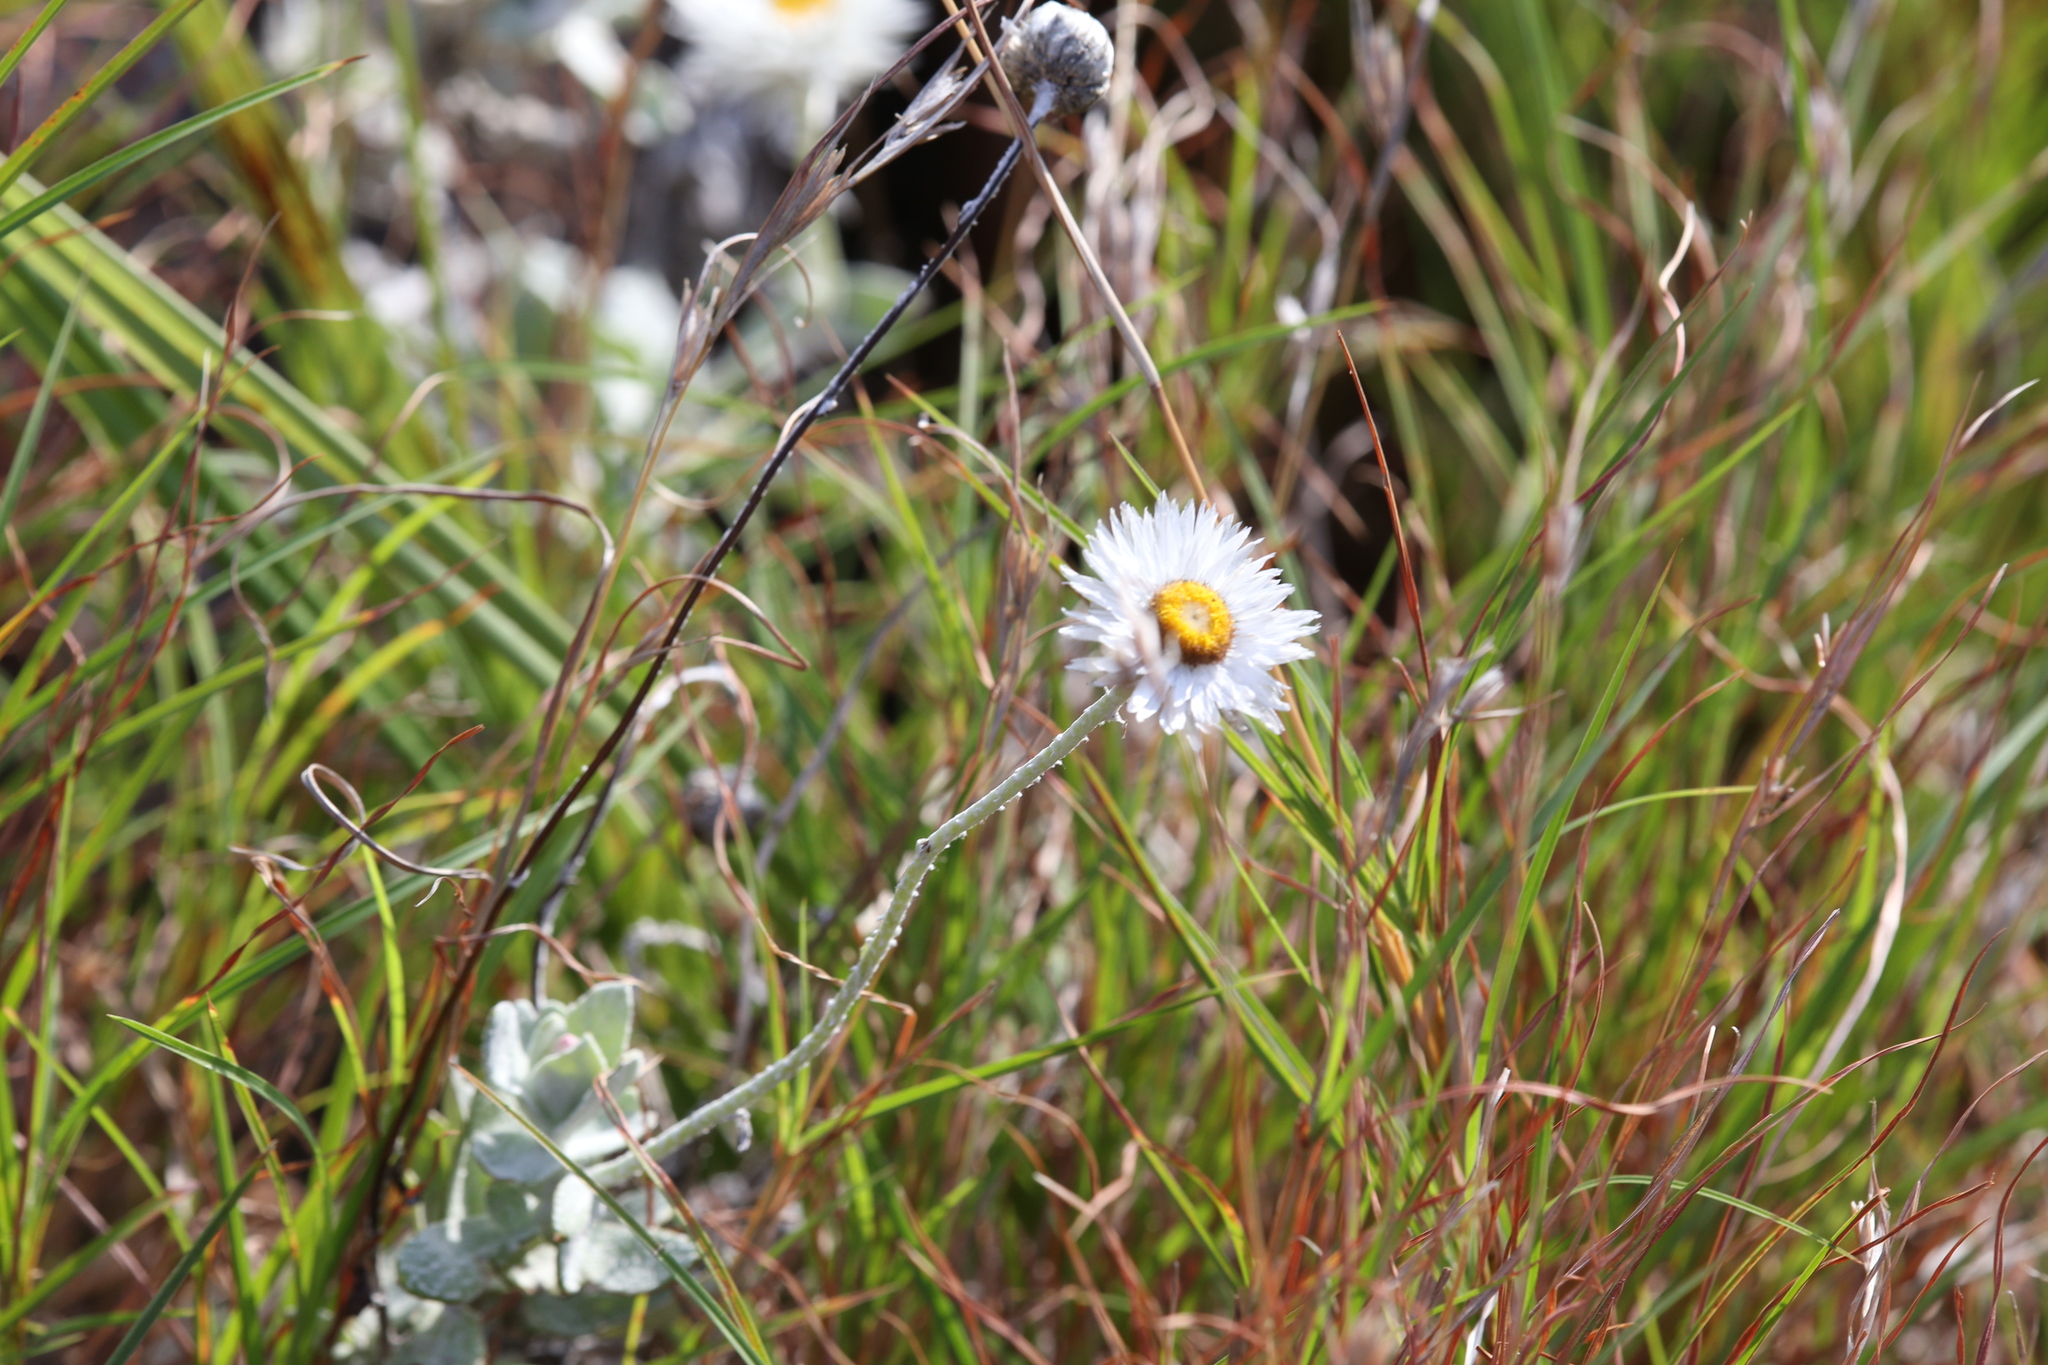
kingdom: Plantae
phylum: Tracheophyta
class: Magnoliopsida
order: Asterales
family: Asteraceae
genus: Coronidium
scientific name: Coronidium newcastlianum
